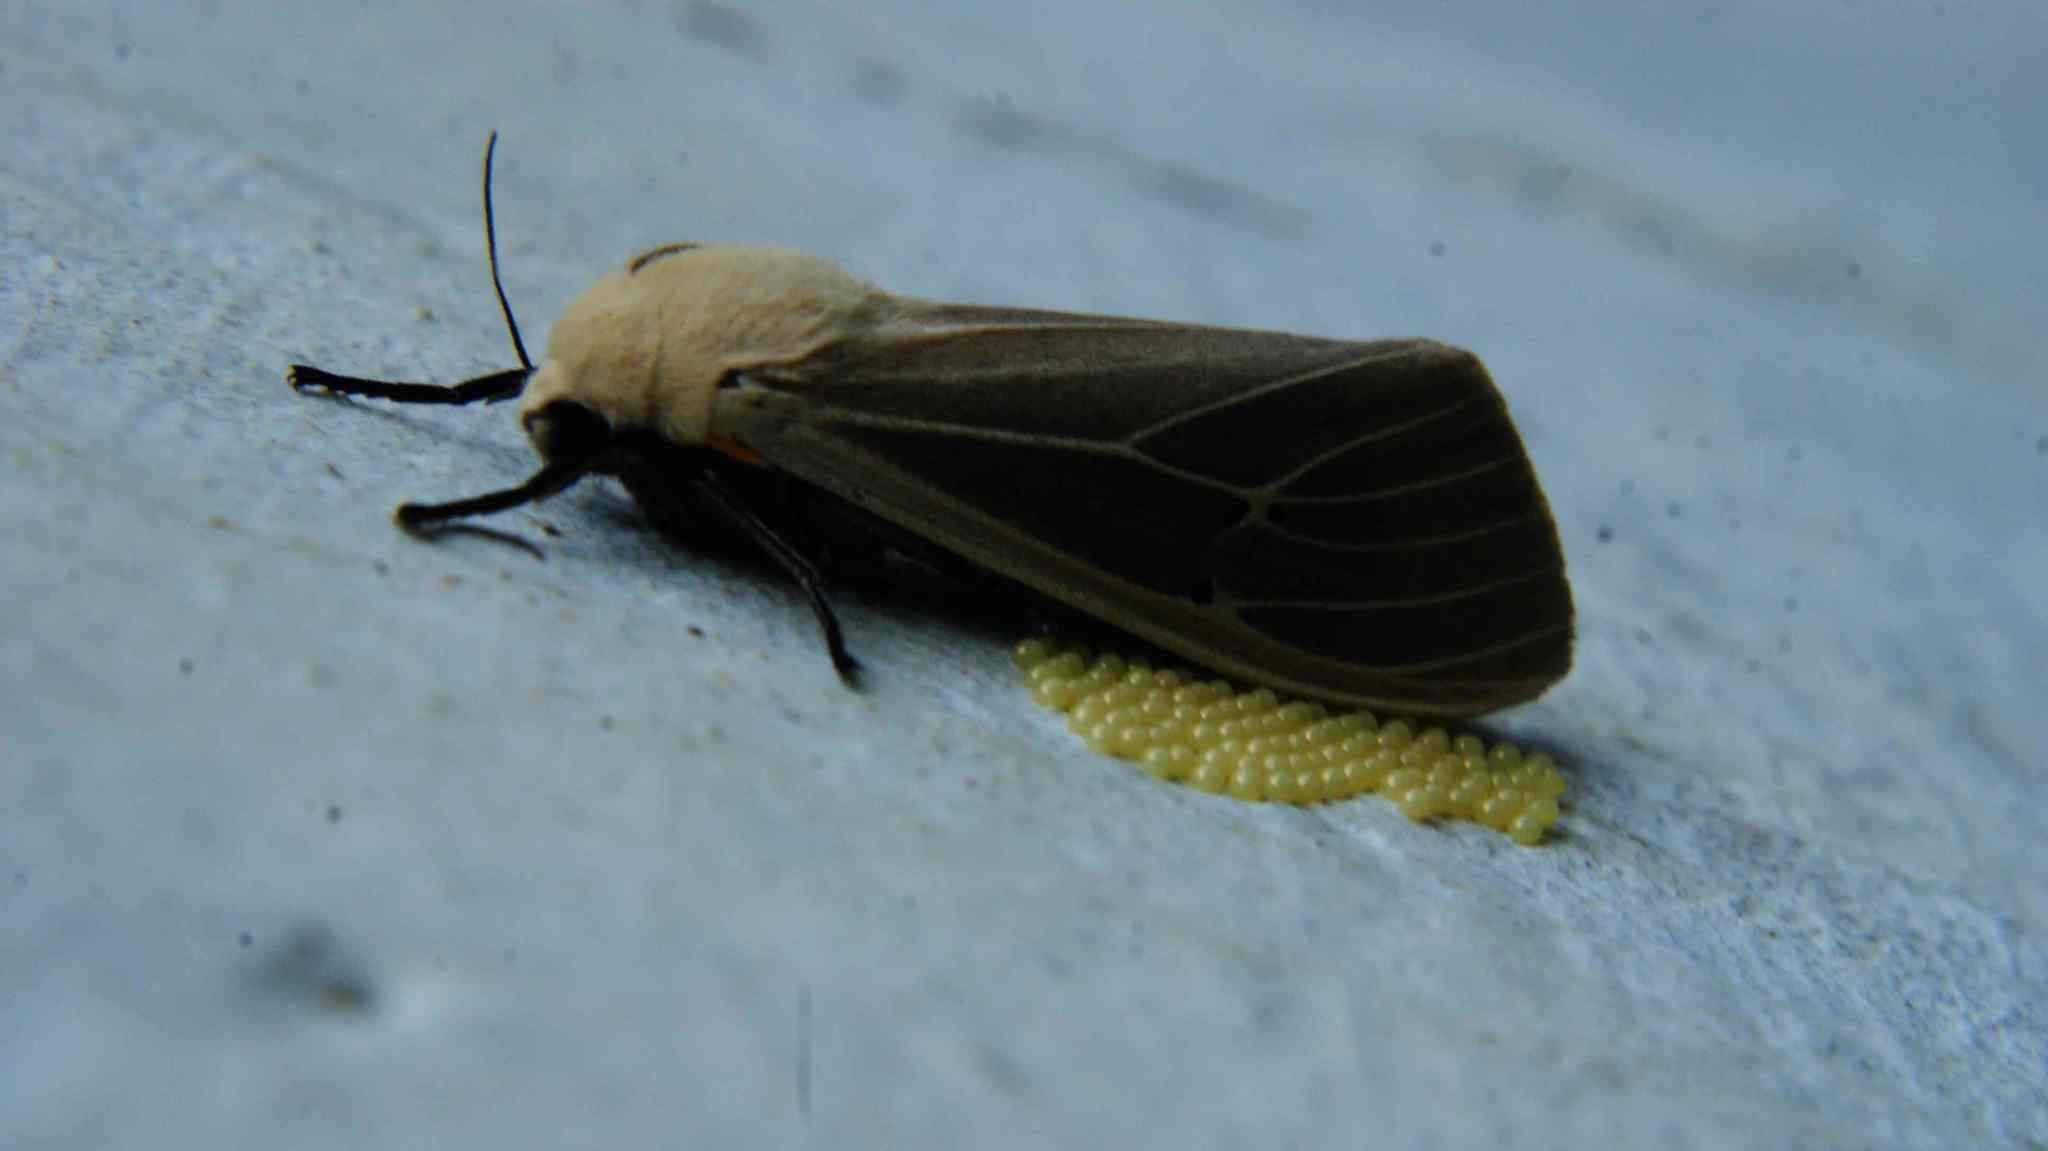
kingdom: Animalia
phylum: Arthropoda
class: Insecta
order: Lepidoptera
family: Erebidae
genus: Creatonotos
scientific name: Creatonotos transiens
